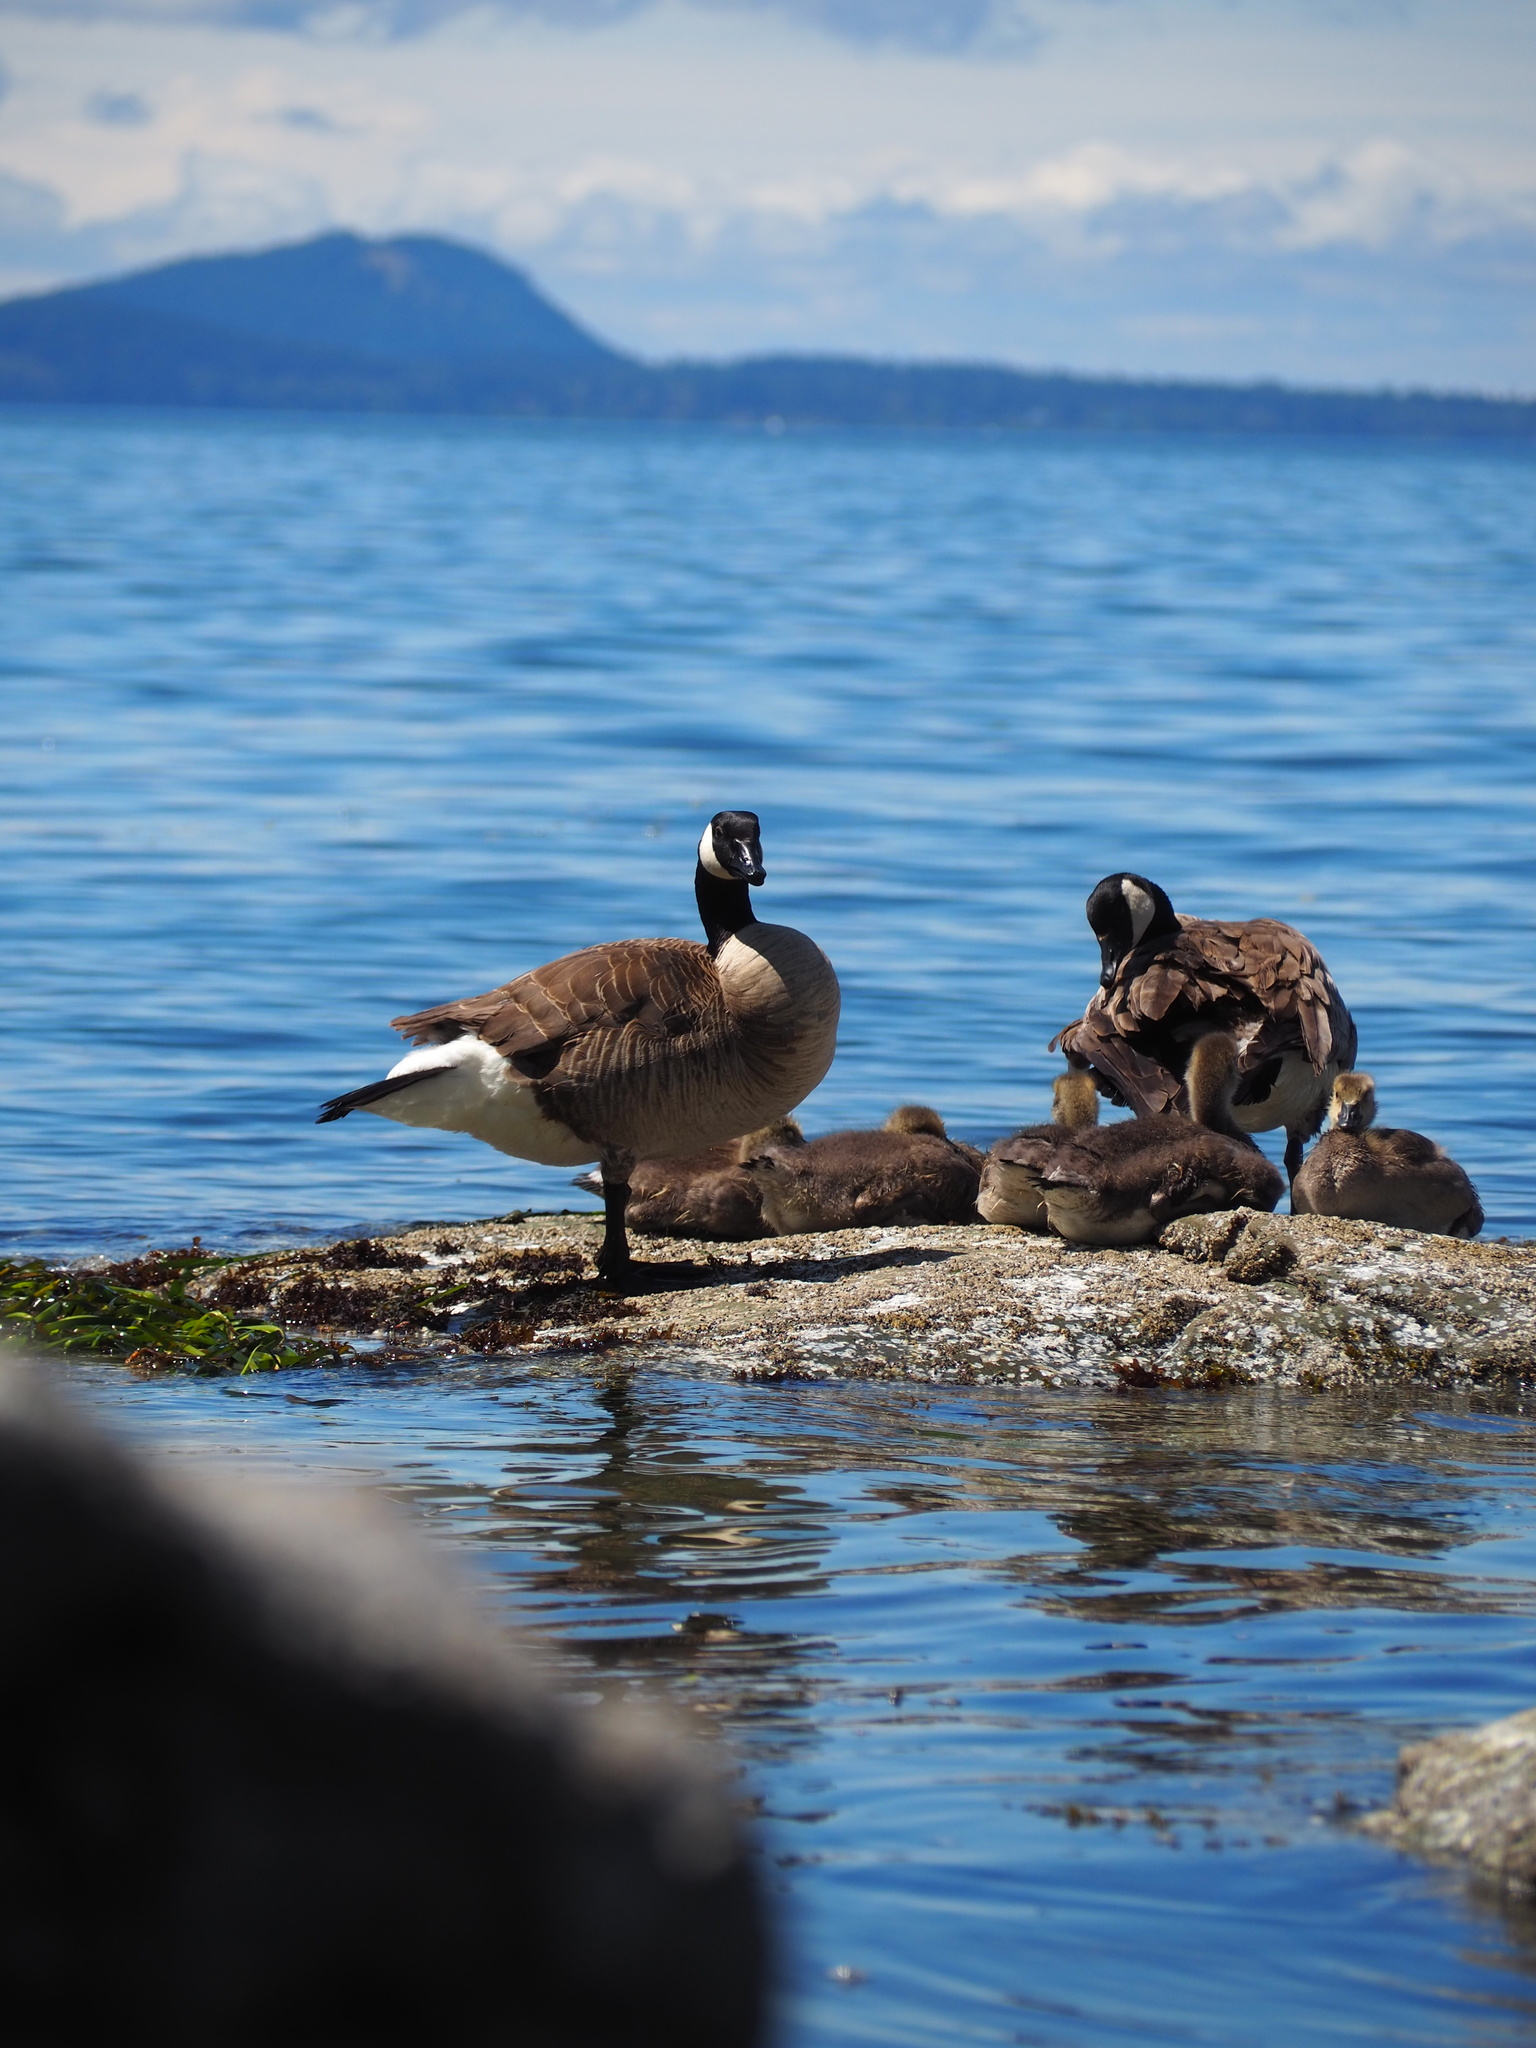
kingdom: Animalia
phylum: Chordata
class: Aves
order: Anseriformes
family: Anatidae
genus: Branta
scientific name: Branta canadensis
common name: Canada goose
